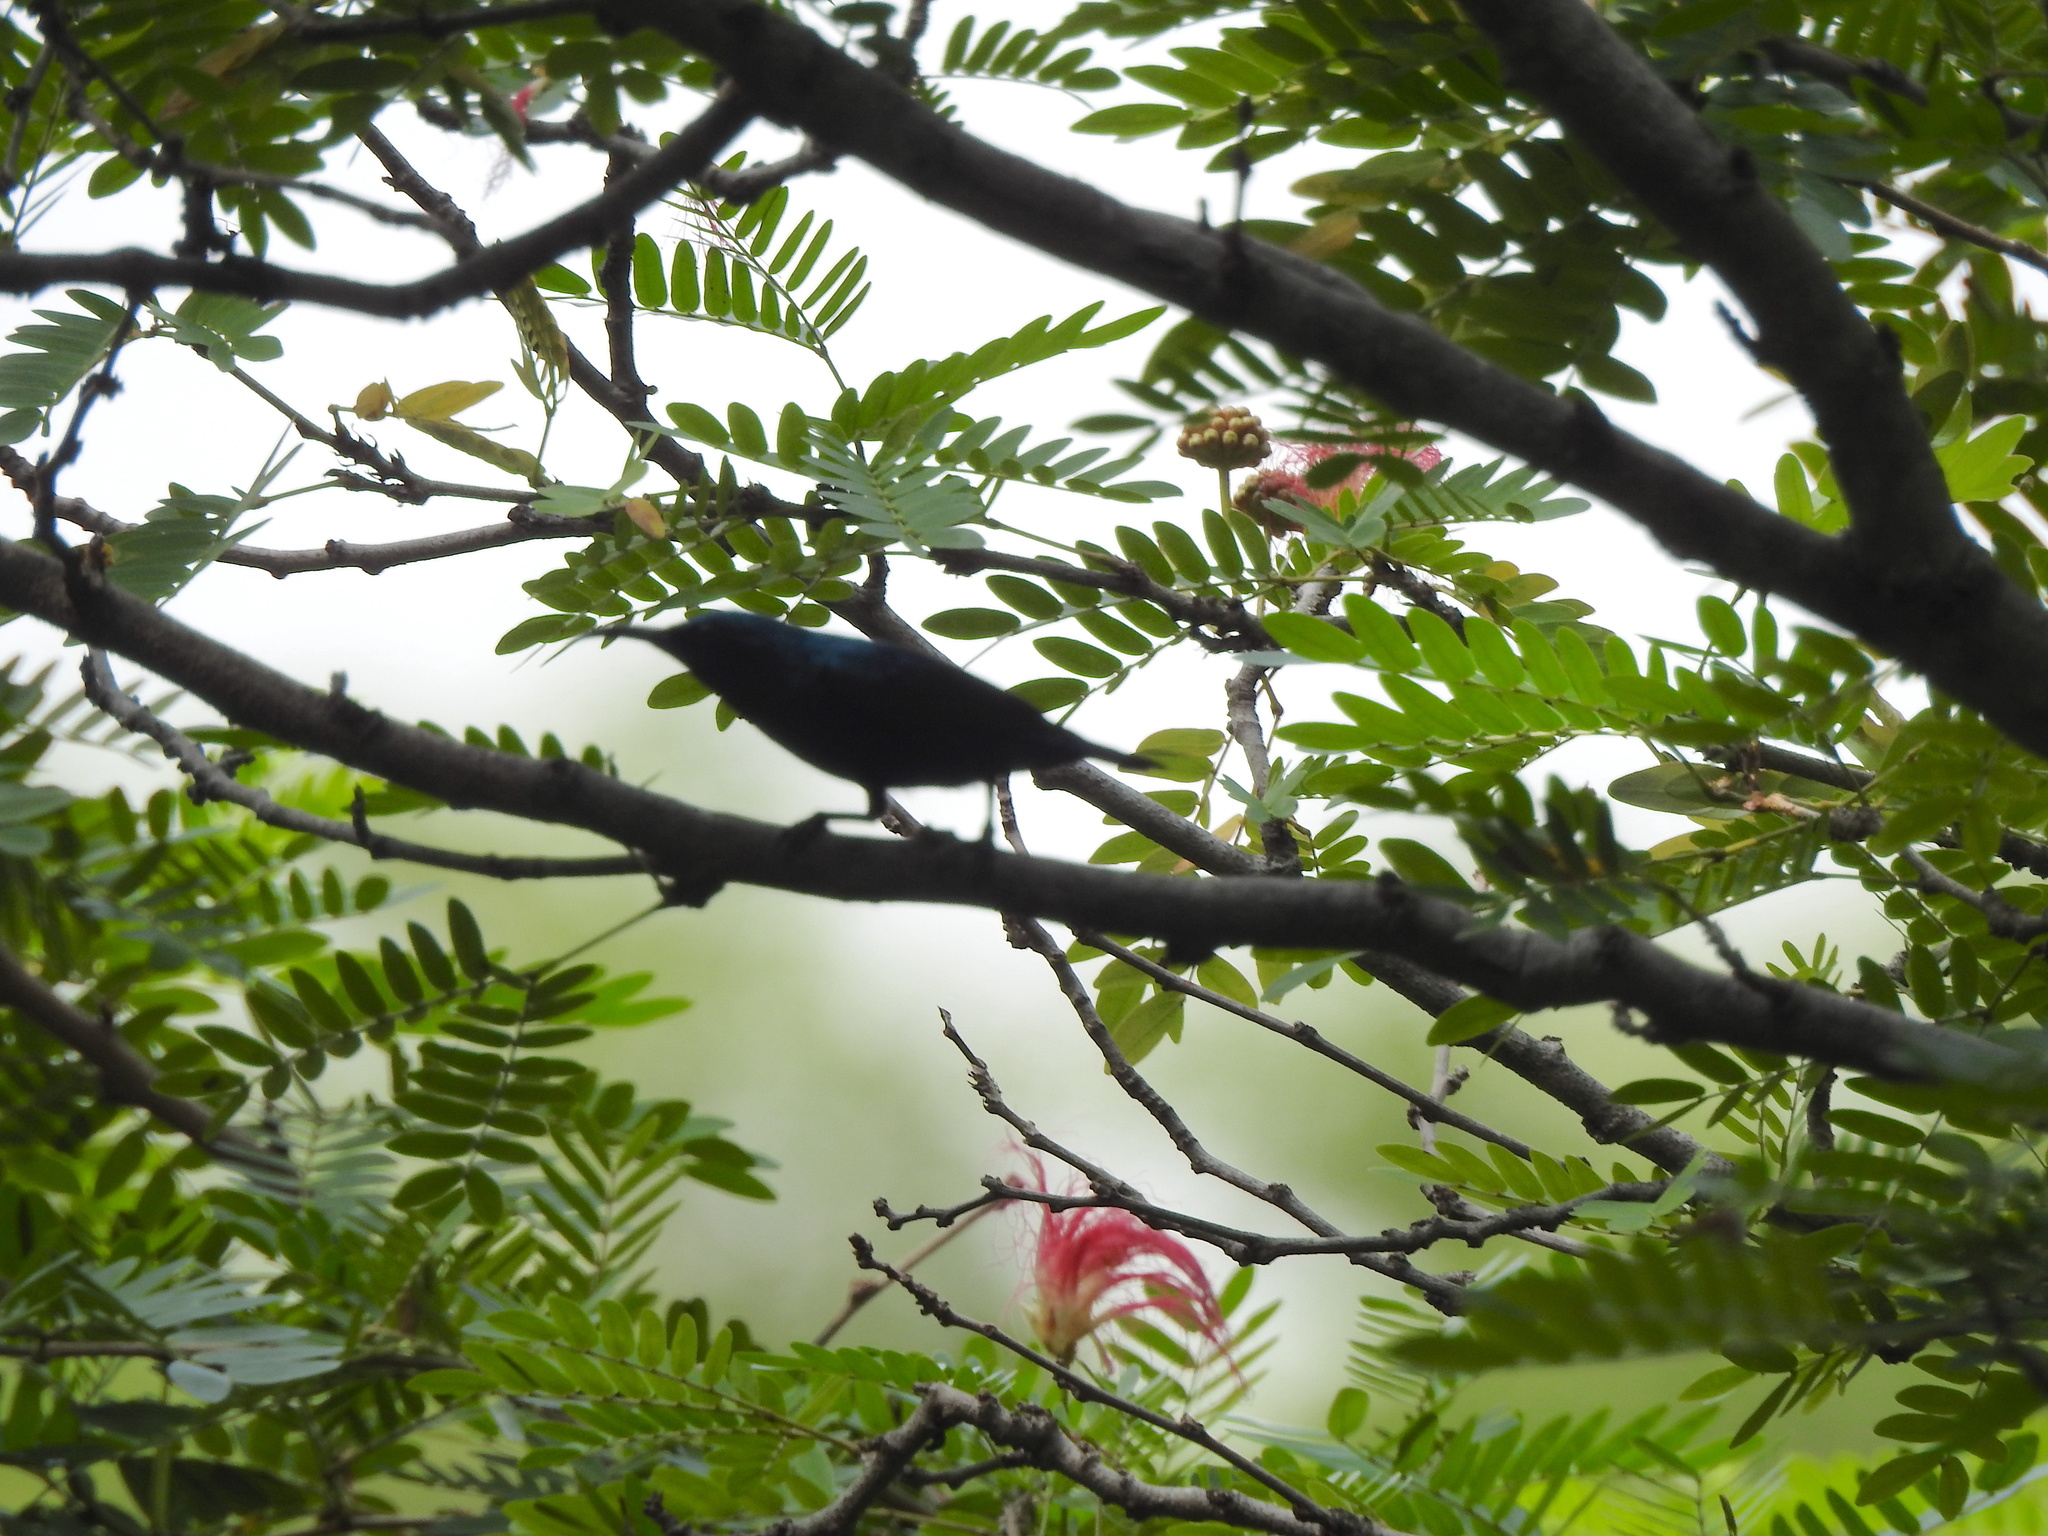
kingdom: Animalia
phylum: Chordata
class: Aves
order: Passeriformes
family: Nectariniidae
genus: Cinnyris
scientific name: Cinnyris asiaticus
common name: Purple sunbird
